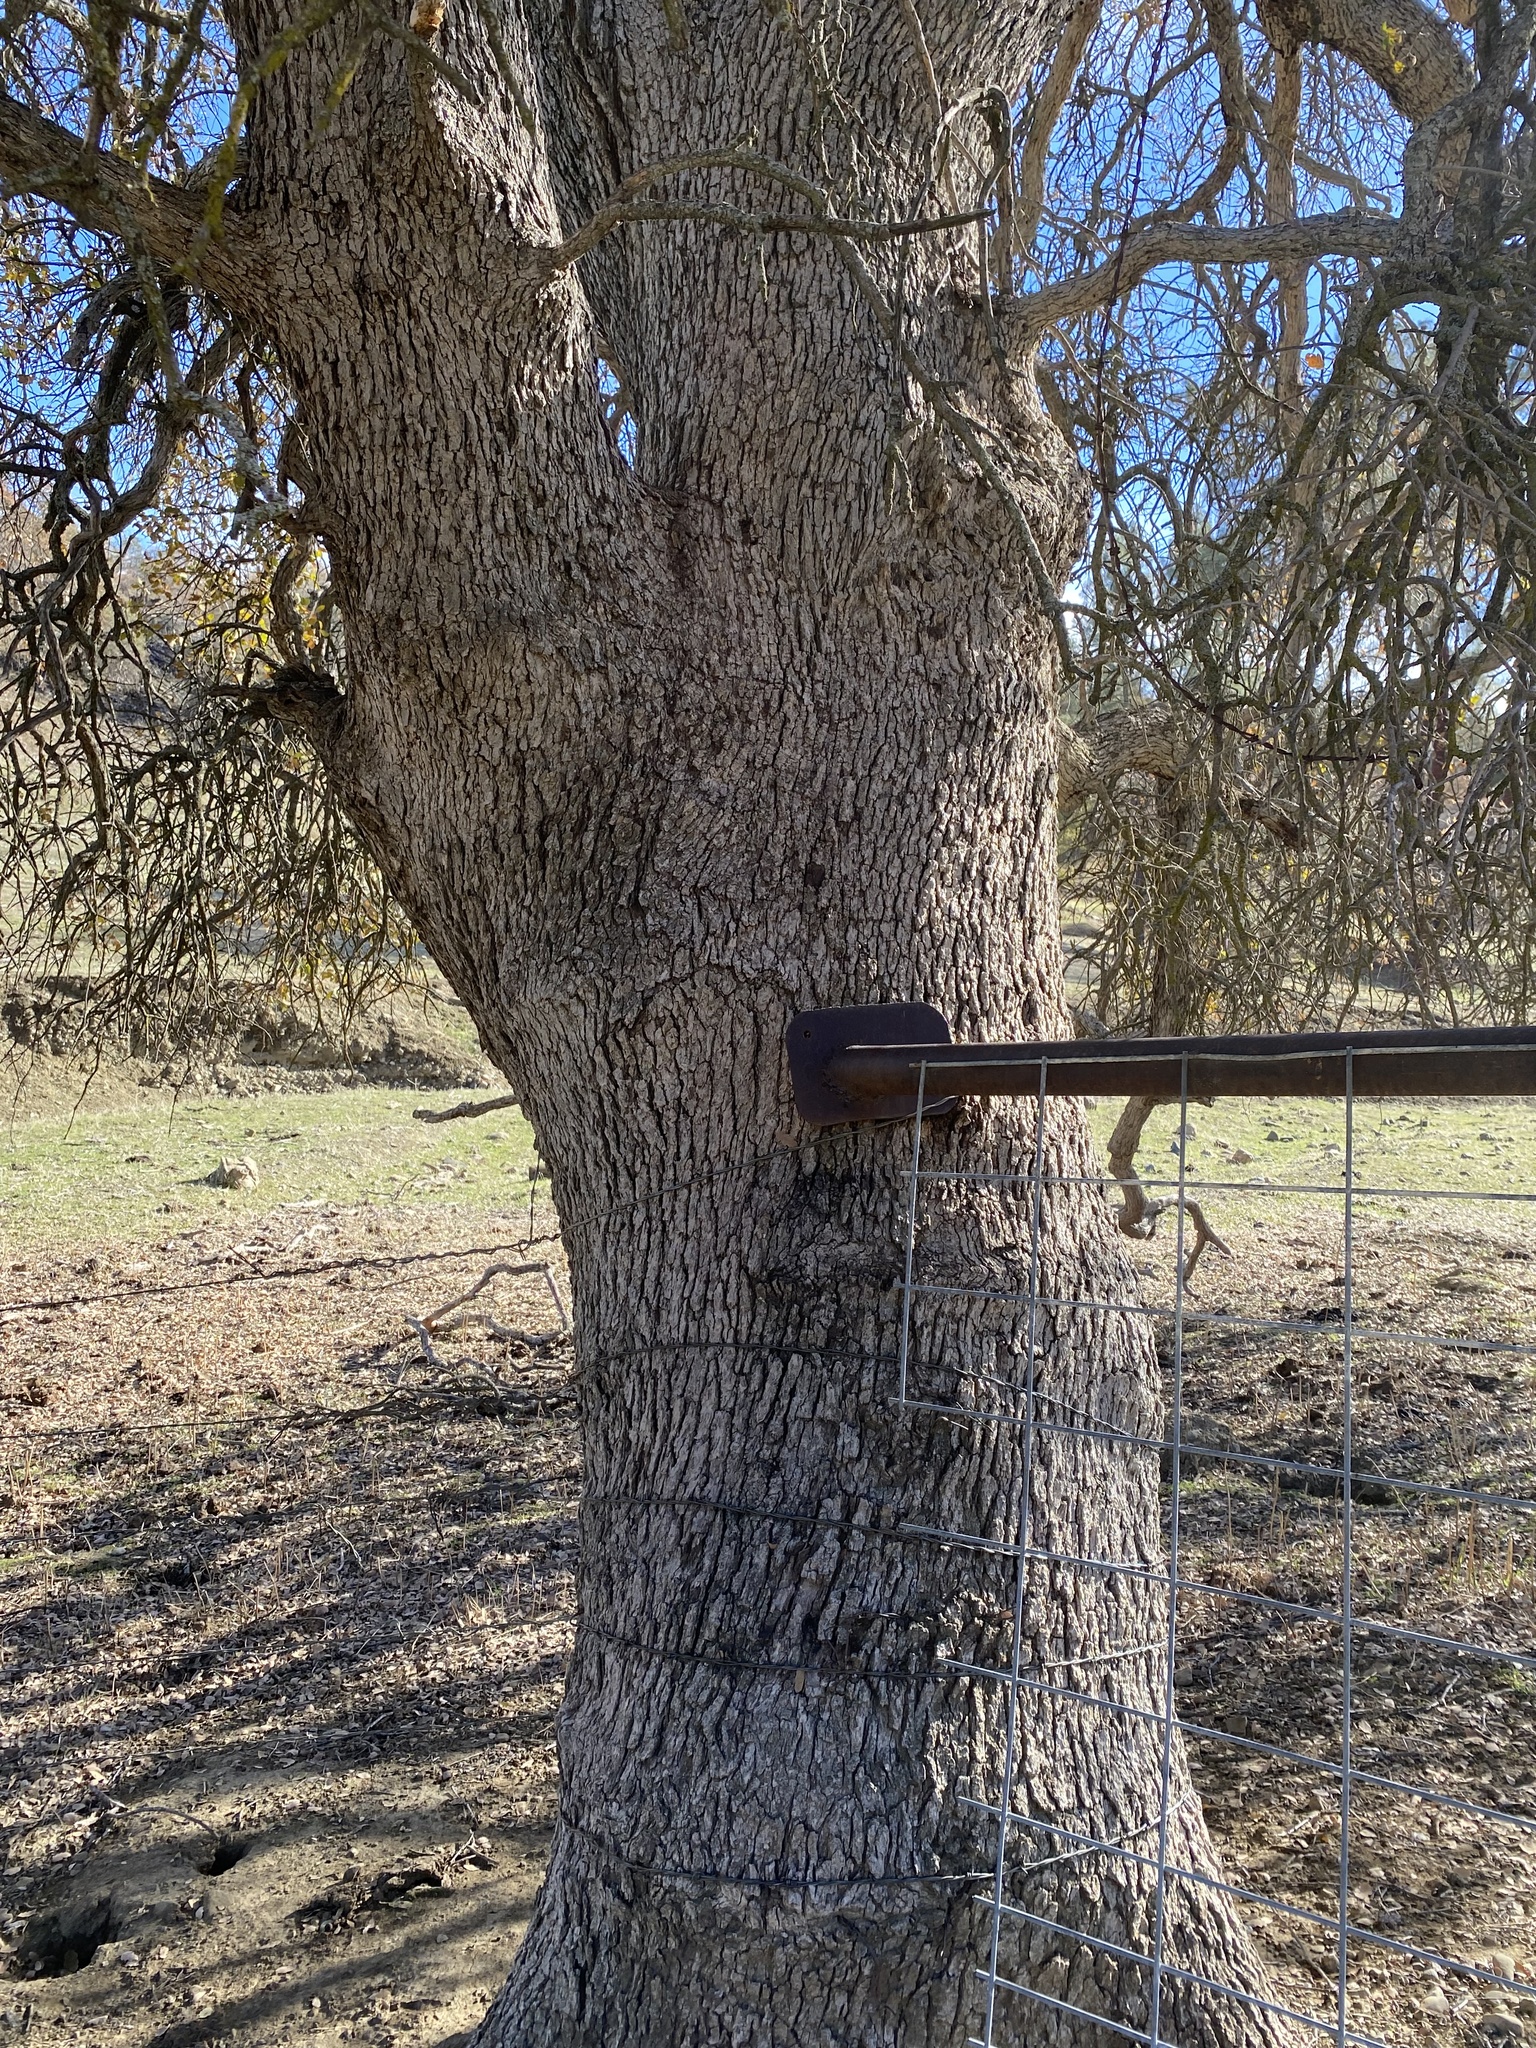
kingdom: Plantae
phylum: Tracheophyta
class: Magnoliopsida
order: Fagales
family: Fagaceae
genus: Quercus
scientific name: Quercus douglasii
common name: Blue oak
